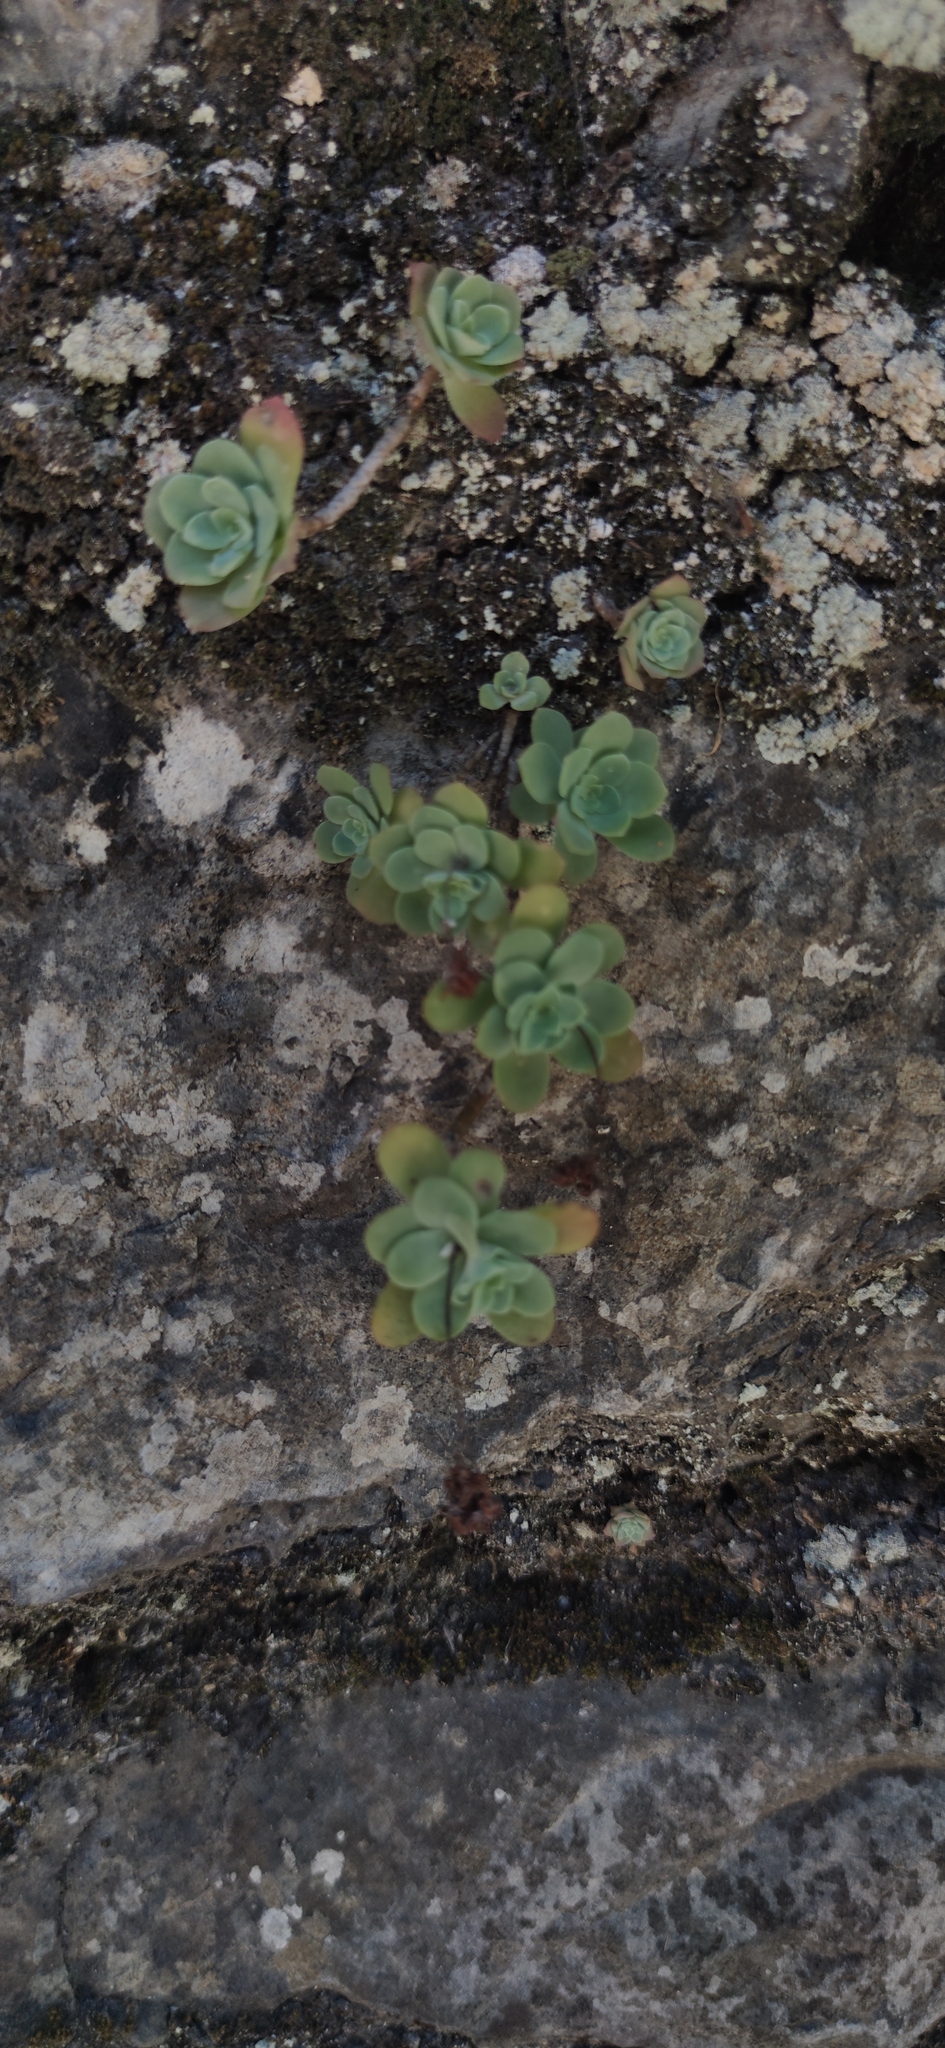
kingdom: Plantae
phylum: Tracheophyta
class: Magnoliopsida
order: Saxifragales
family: Crassulaceae
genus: Sedum
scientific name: Sedum palmeri
